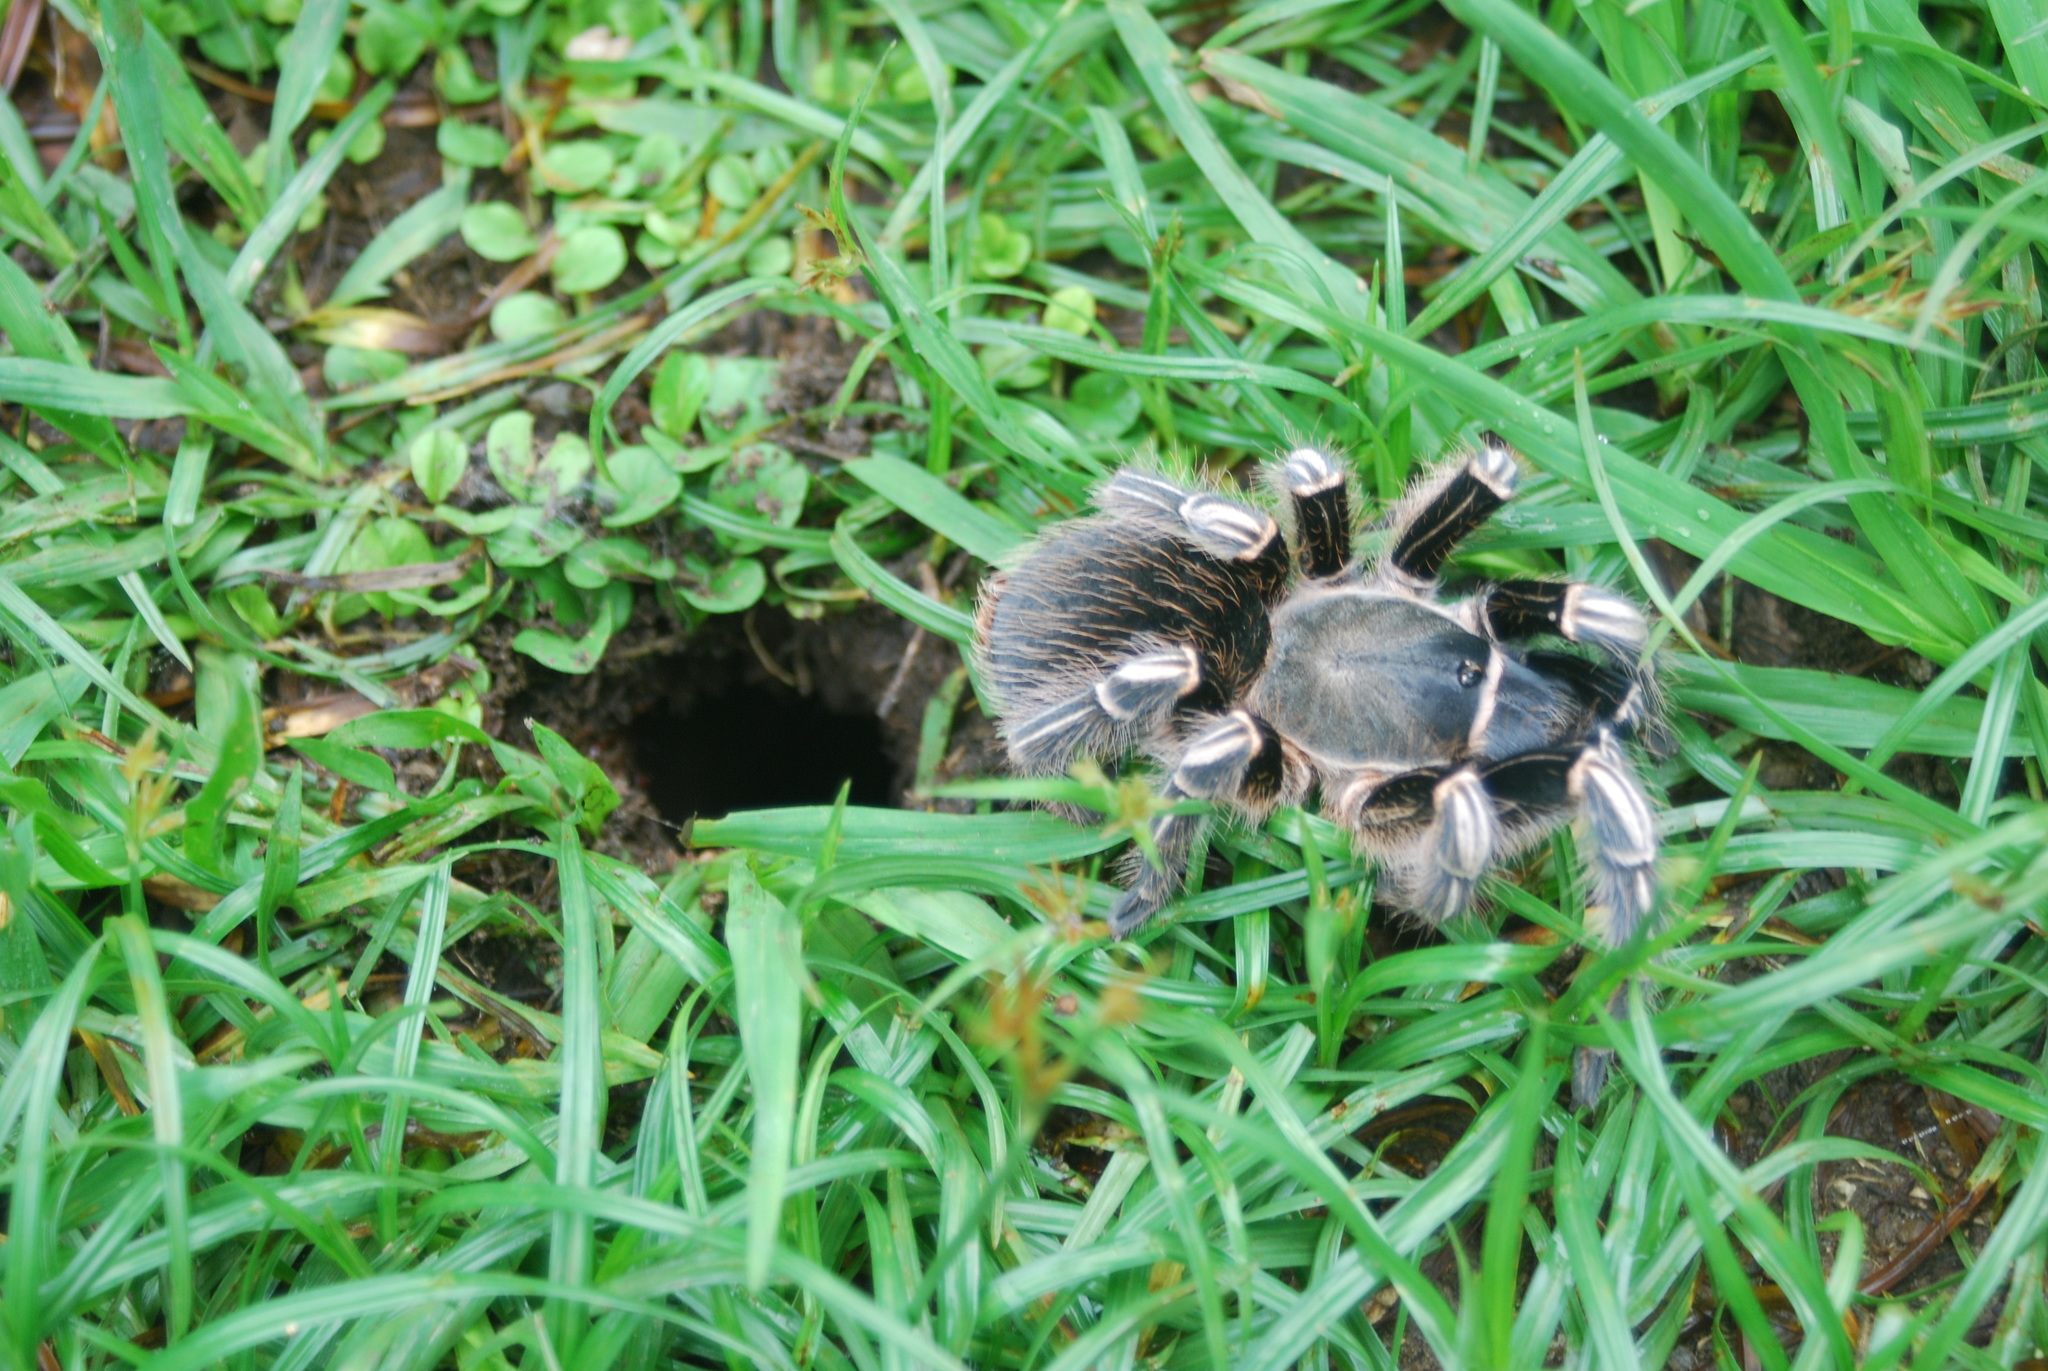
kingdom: Animalia
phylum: Arthropoda
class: Arachnida
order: Araneae
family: Theraphosidae
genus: Aphonopelma
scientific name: Aphonopelma seemanni
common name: Tarantula spiders
